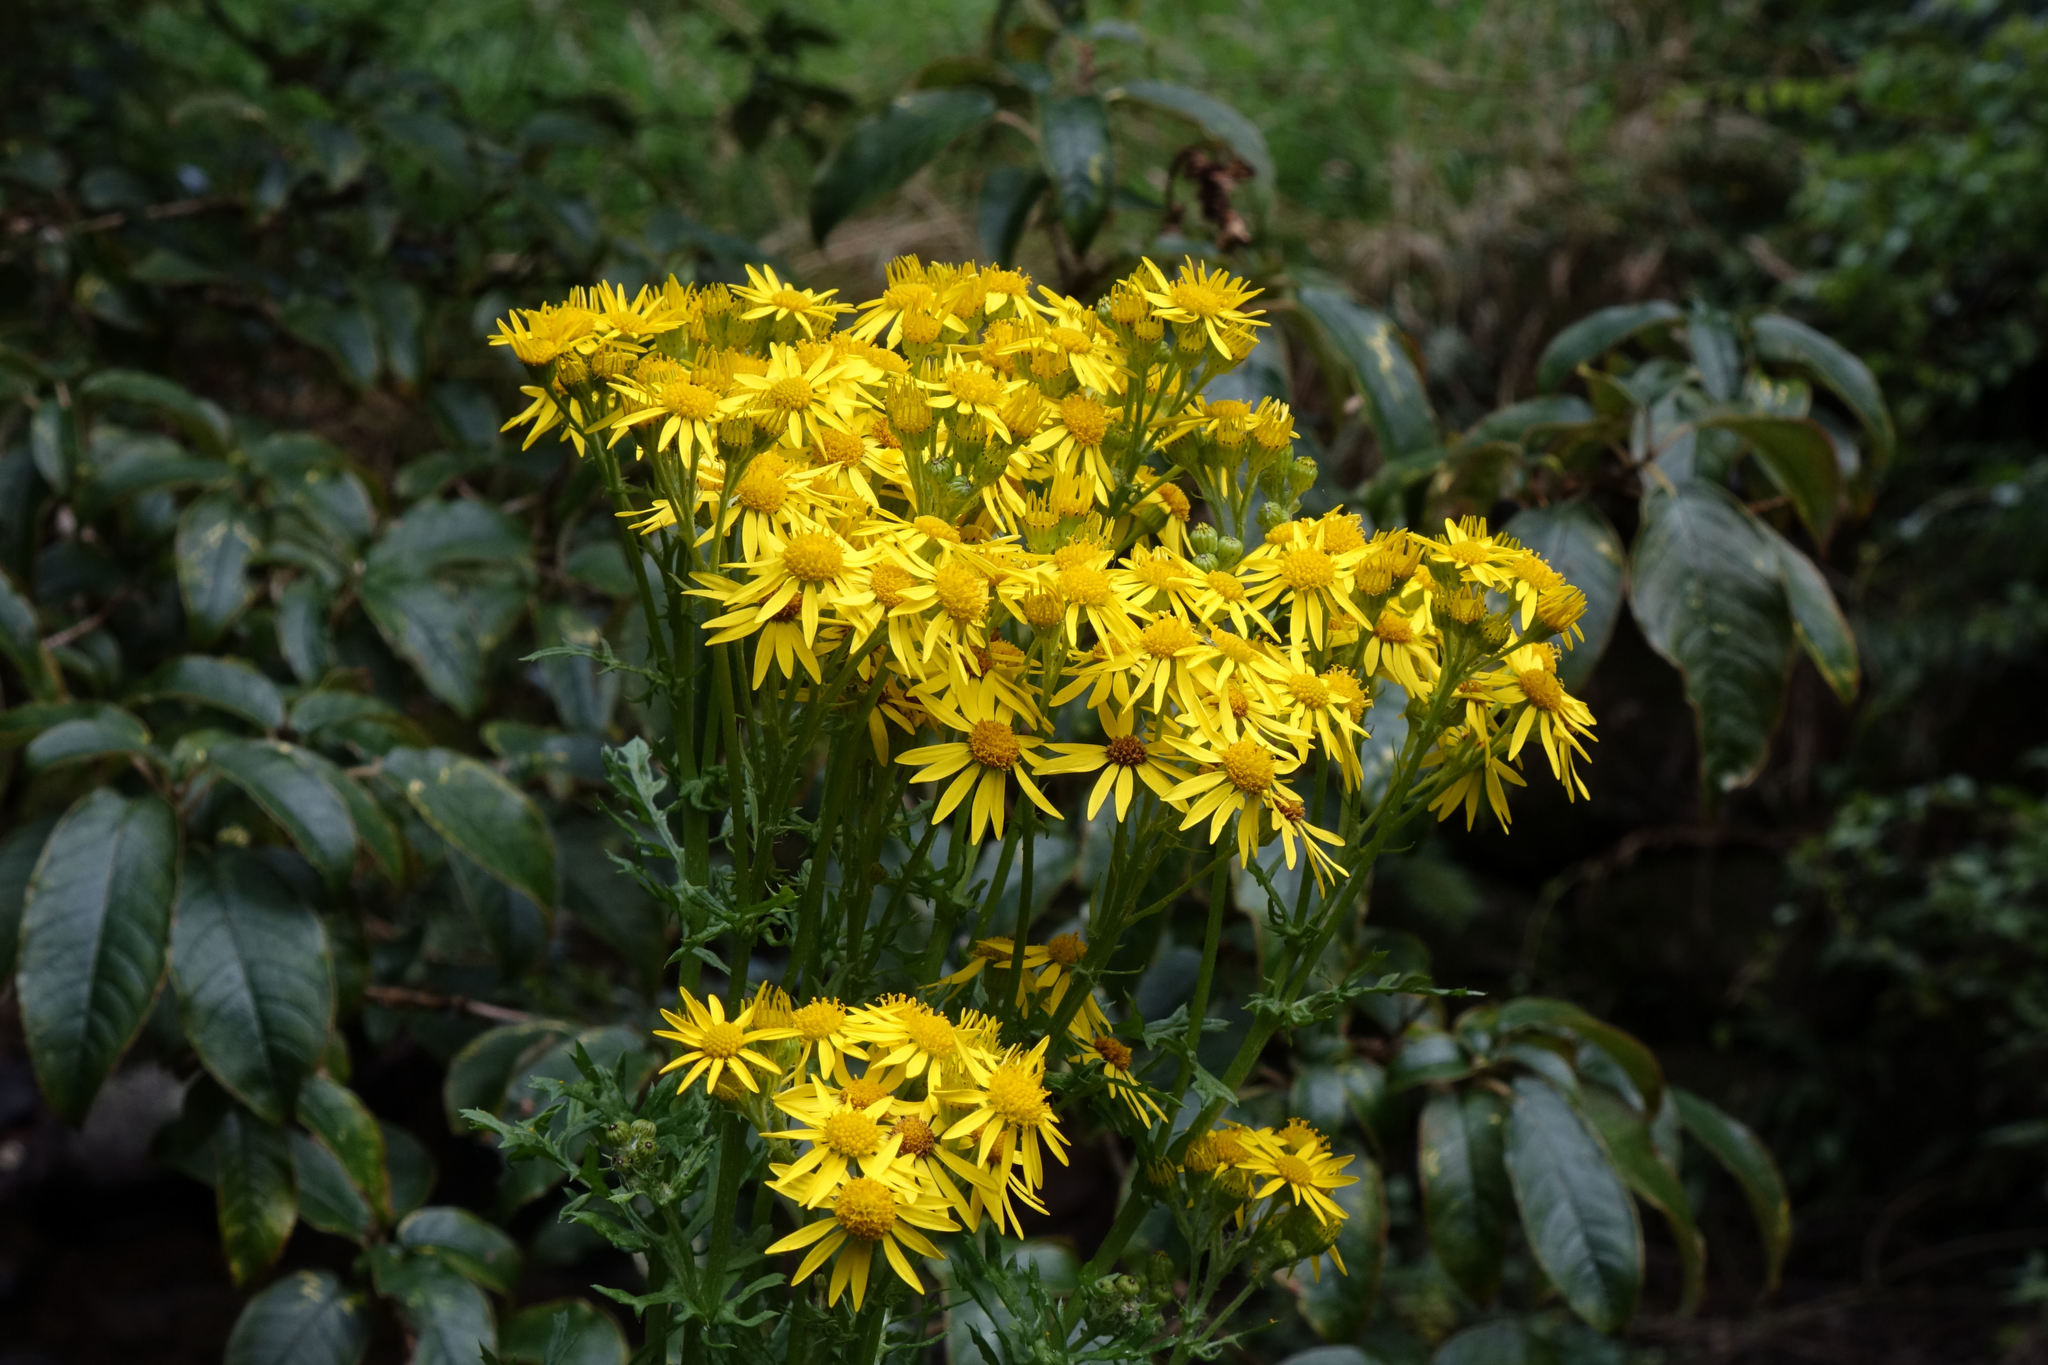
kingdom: Plantae
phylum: Tracheophyta
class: Magnoliopsida
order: Asterales
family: Asteraceae
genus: Jacobaea
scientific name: Jacobaea vulgaris
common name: Stinking willie
